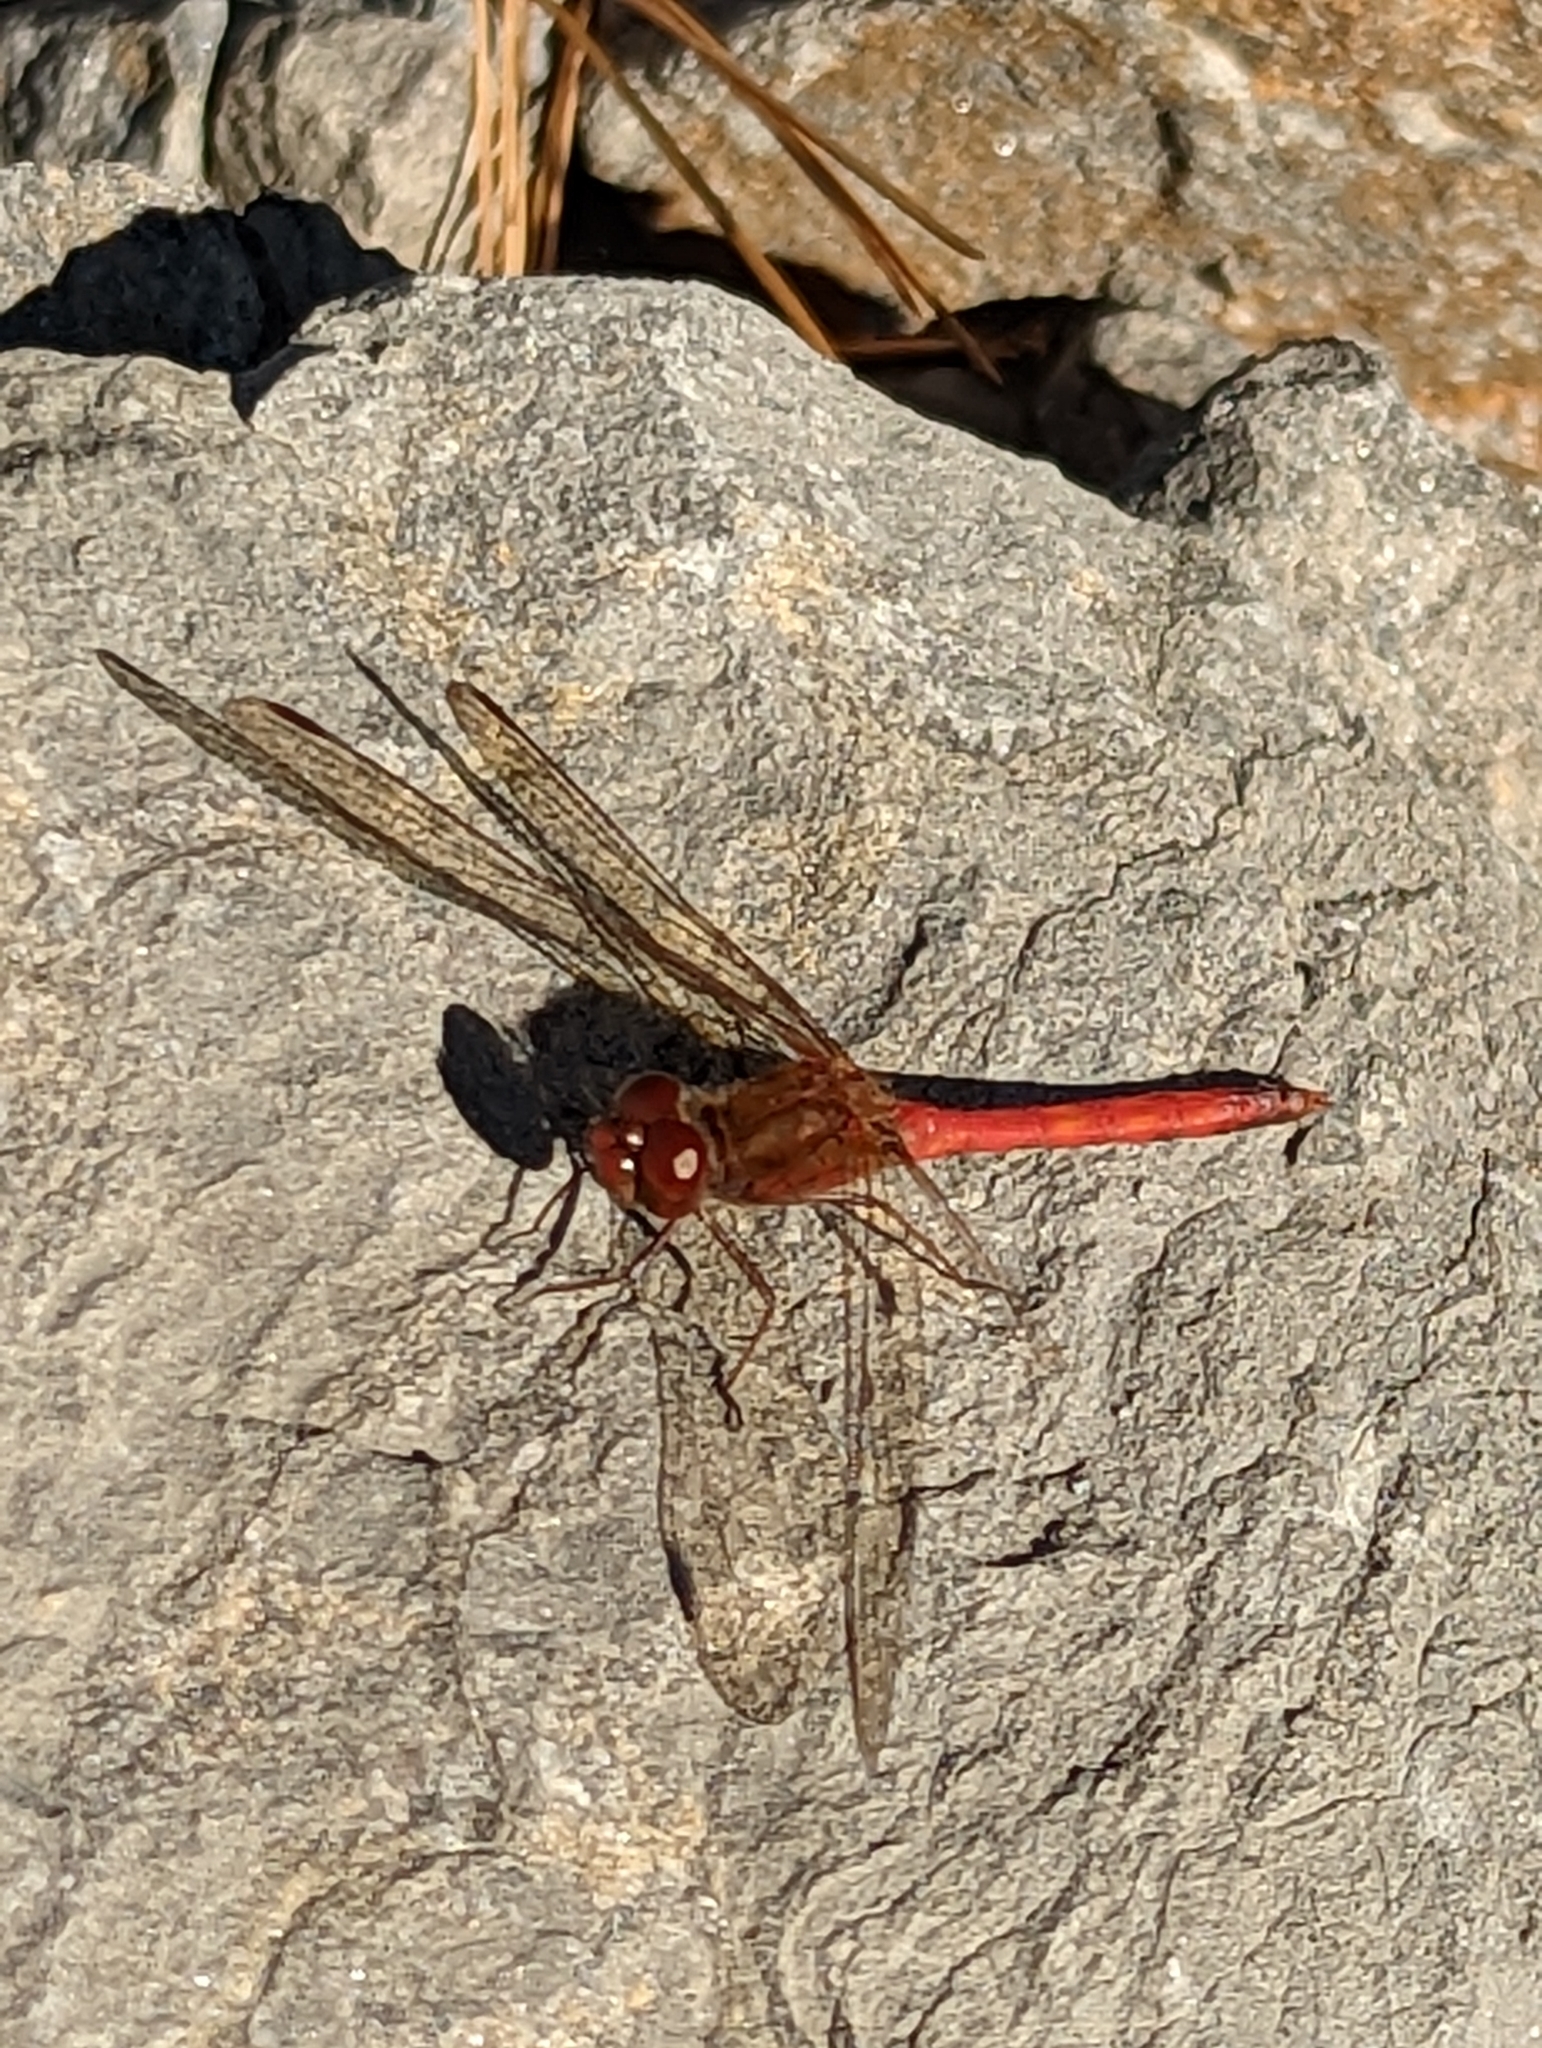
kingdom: Animalia
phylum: Arthropoda
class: Insecta
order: Odonata
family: Libellulidae
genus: Sympetrum
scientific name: Sympetrum vicinum
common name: Autumn meadowhawk
